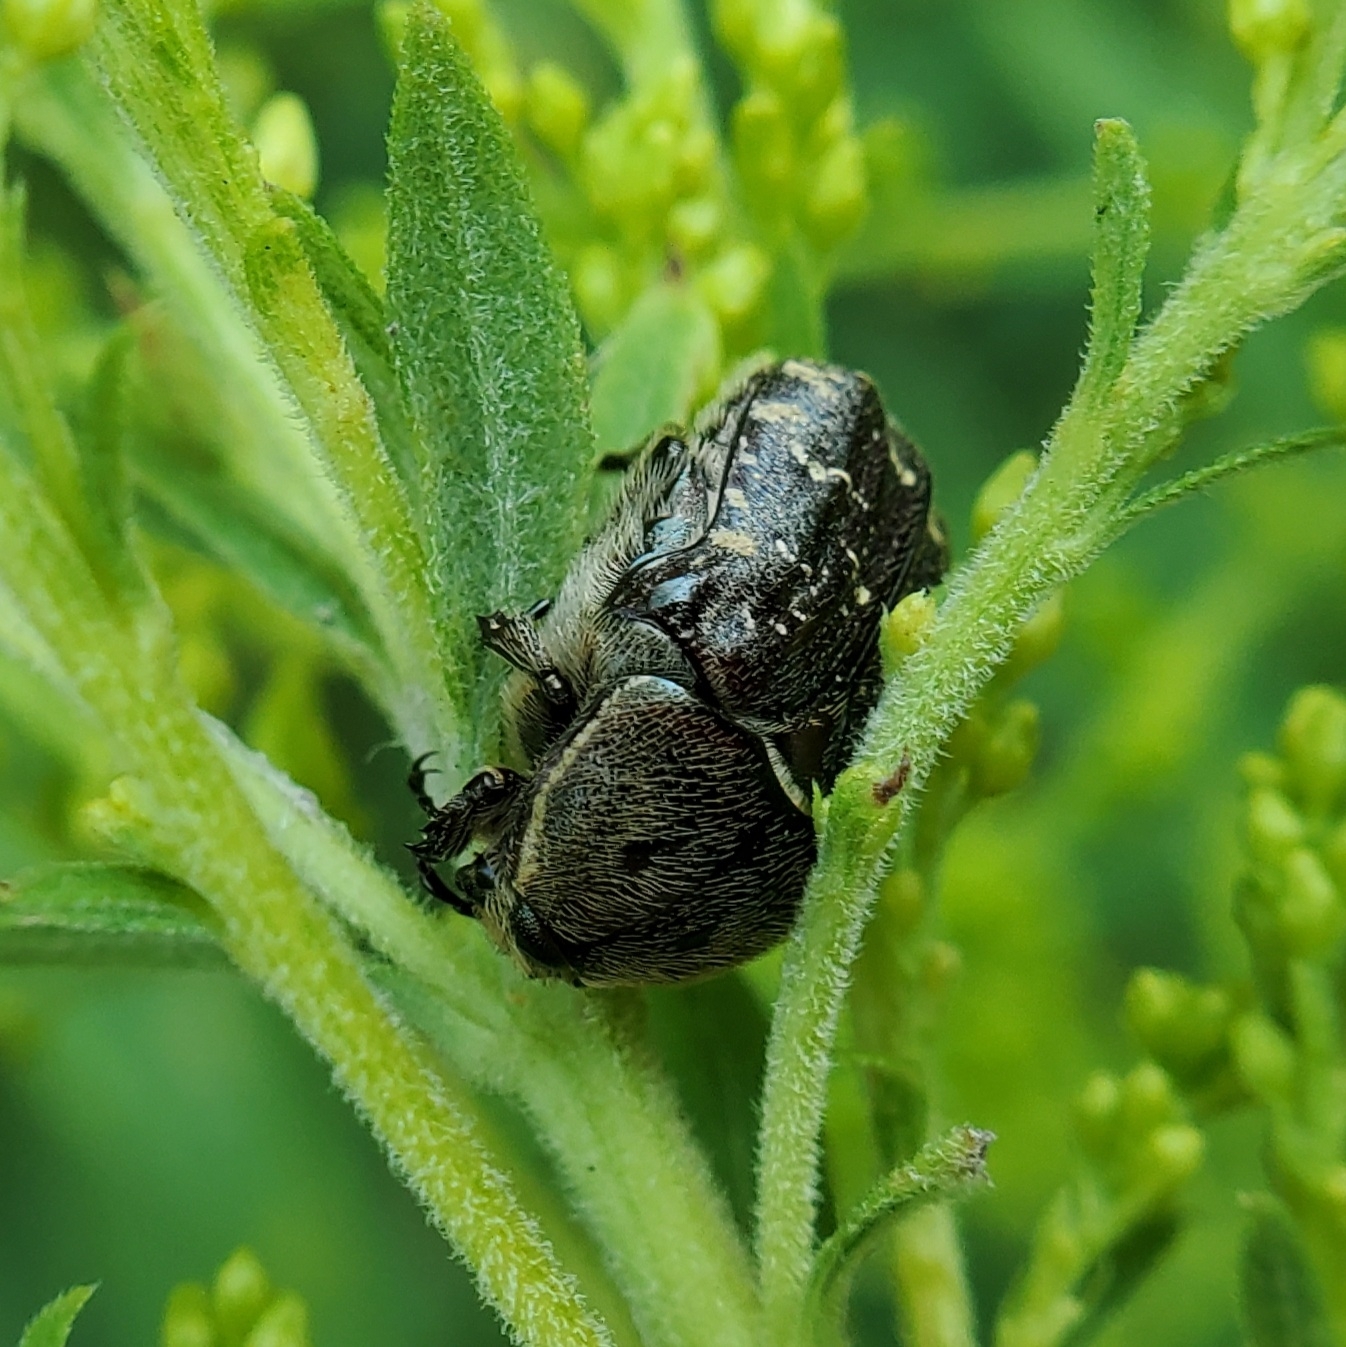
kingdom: Animalia
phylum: Arthropoda
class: Insecta
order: Coleoptera
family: Scarabaeidae
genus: Euphoria
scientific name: Euphoria sepulcralis
